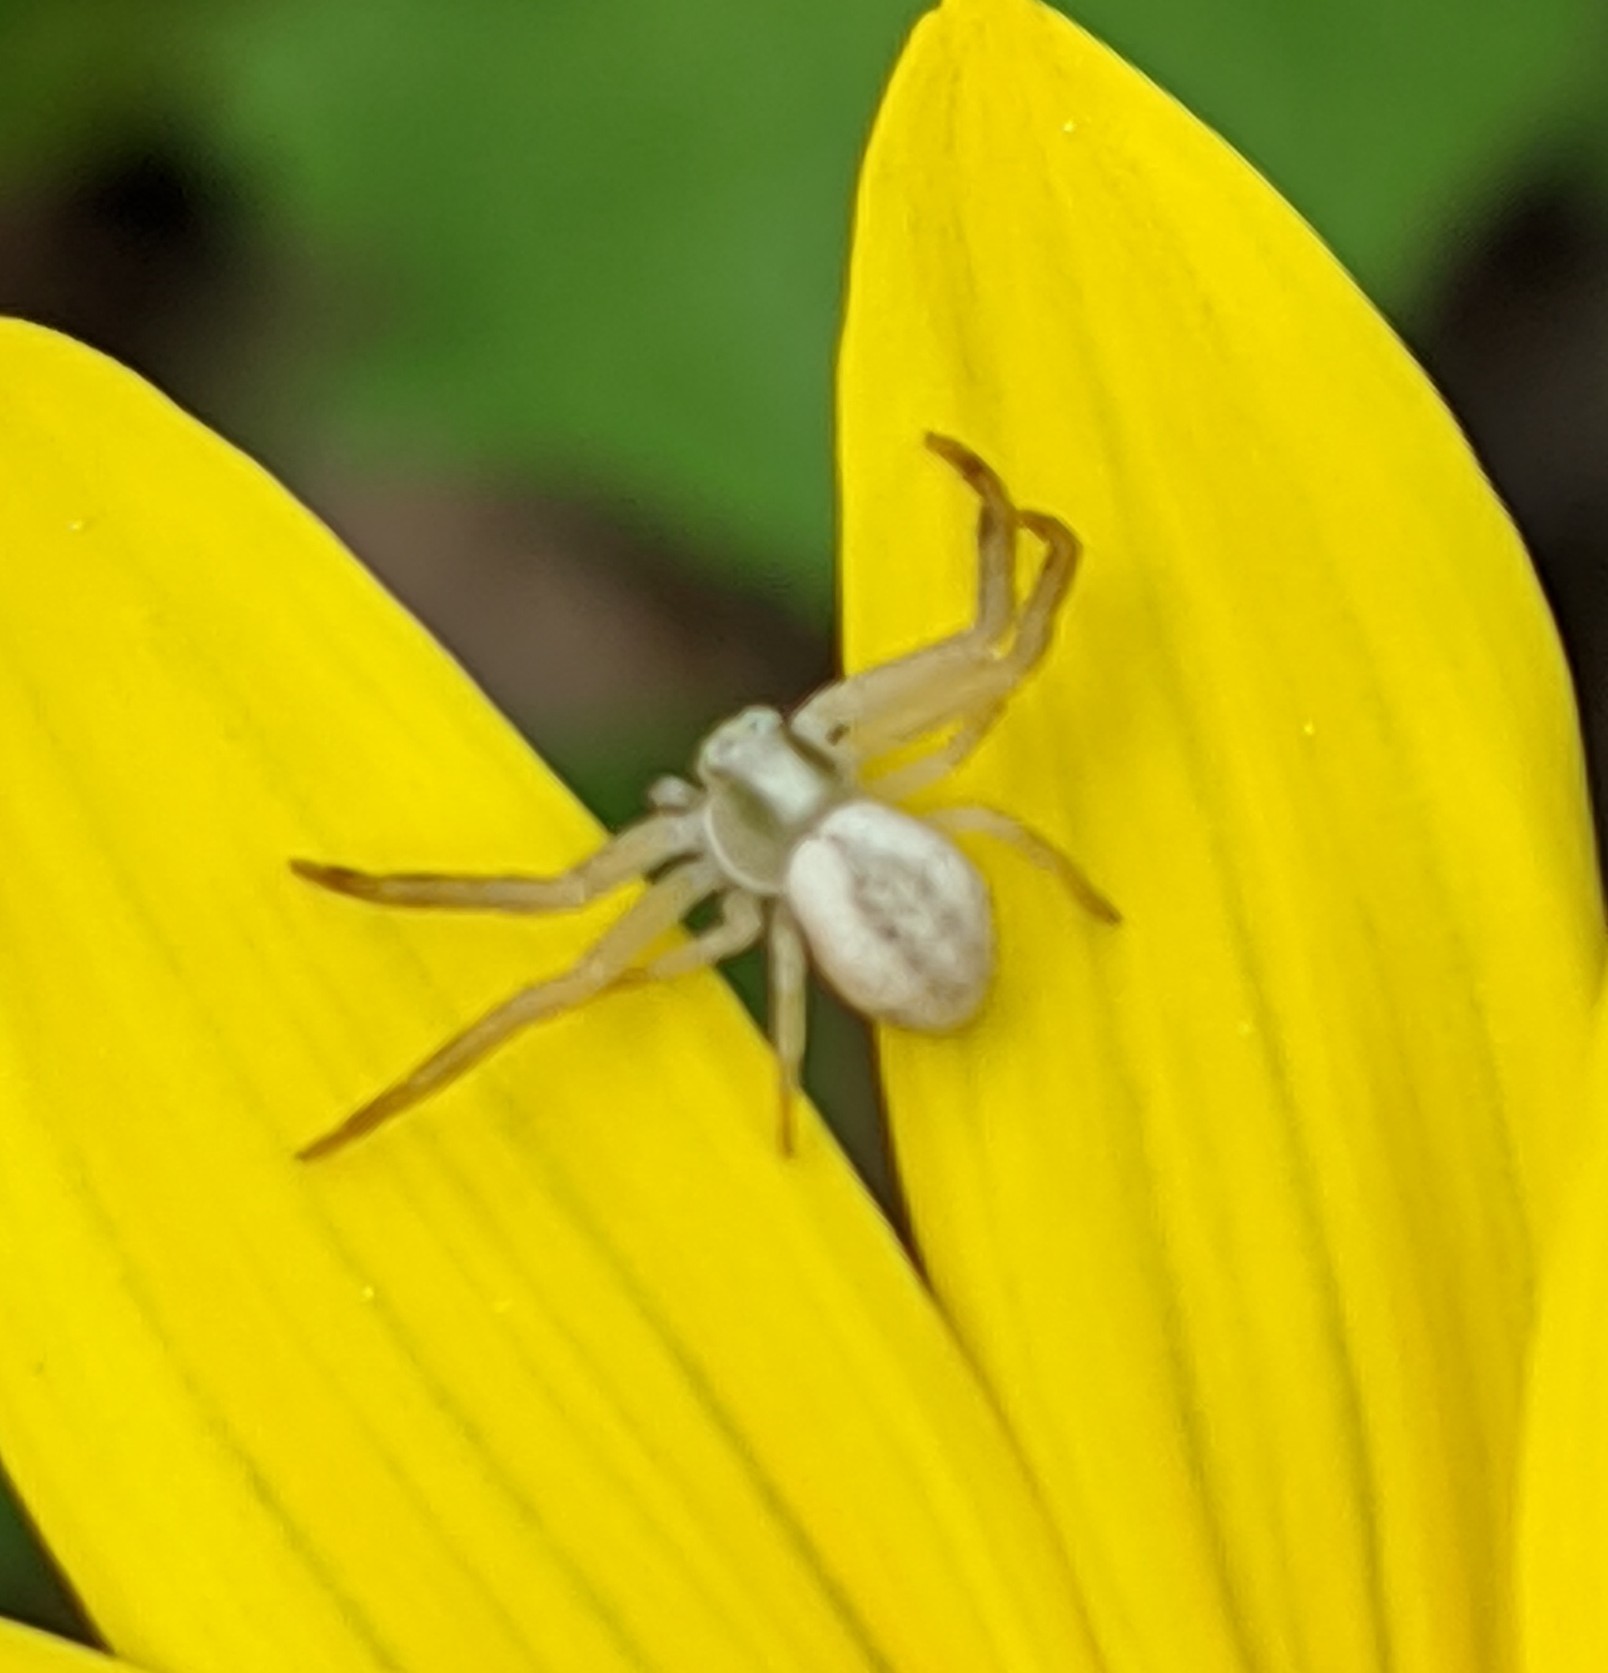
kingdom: Animalia
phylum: Arthropoda
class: Arachnida
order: Araneae
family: Thomisidae
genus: Misumena
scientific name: Misumena vatia
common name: Goldenrod crab spider
